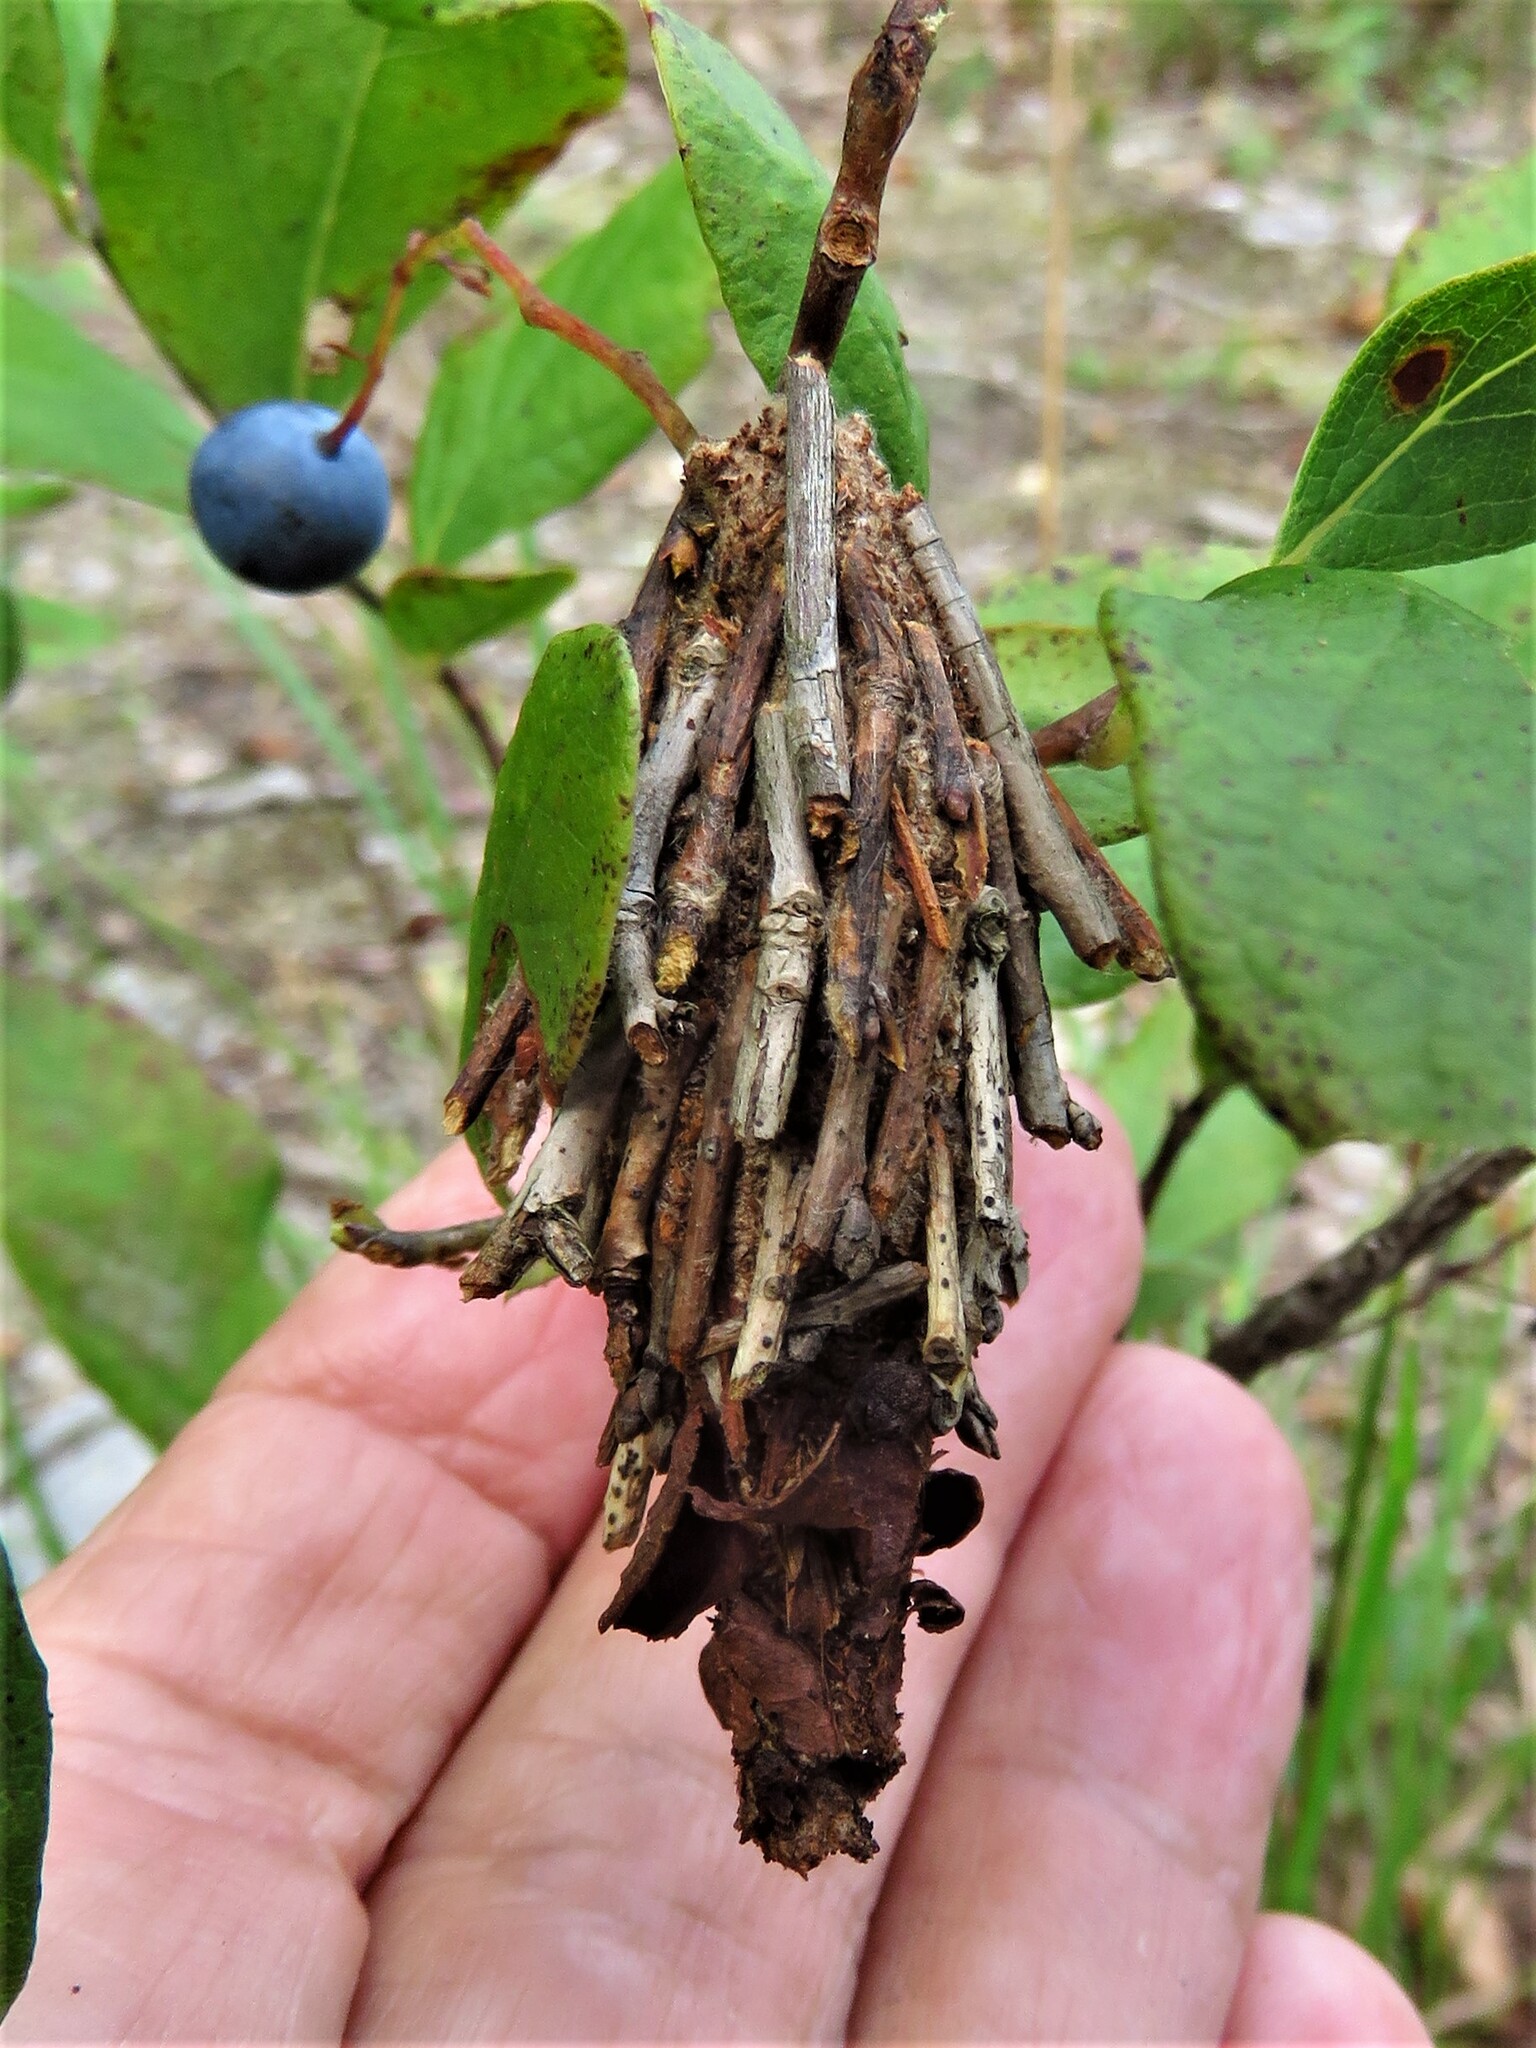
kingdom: Animalia
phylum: Arthropoda
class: Insecta
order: Lepidoptera
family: Psychidae
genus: Thyridopteryx
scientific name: Thyridopteryx ephemeraeformis
